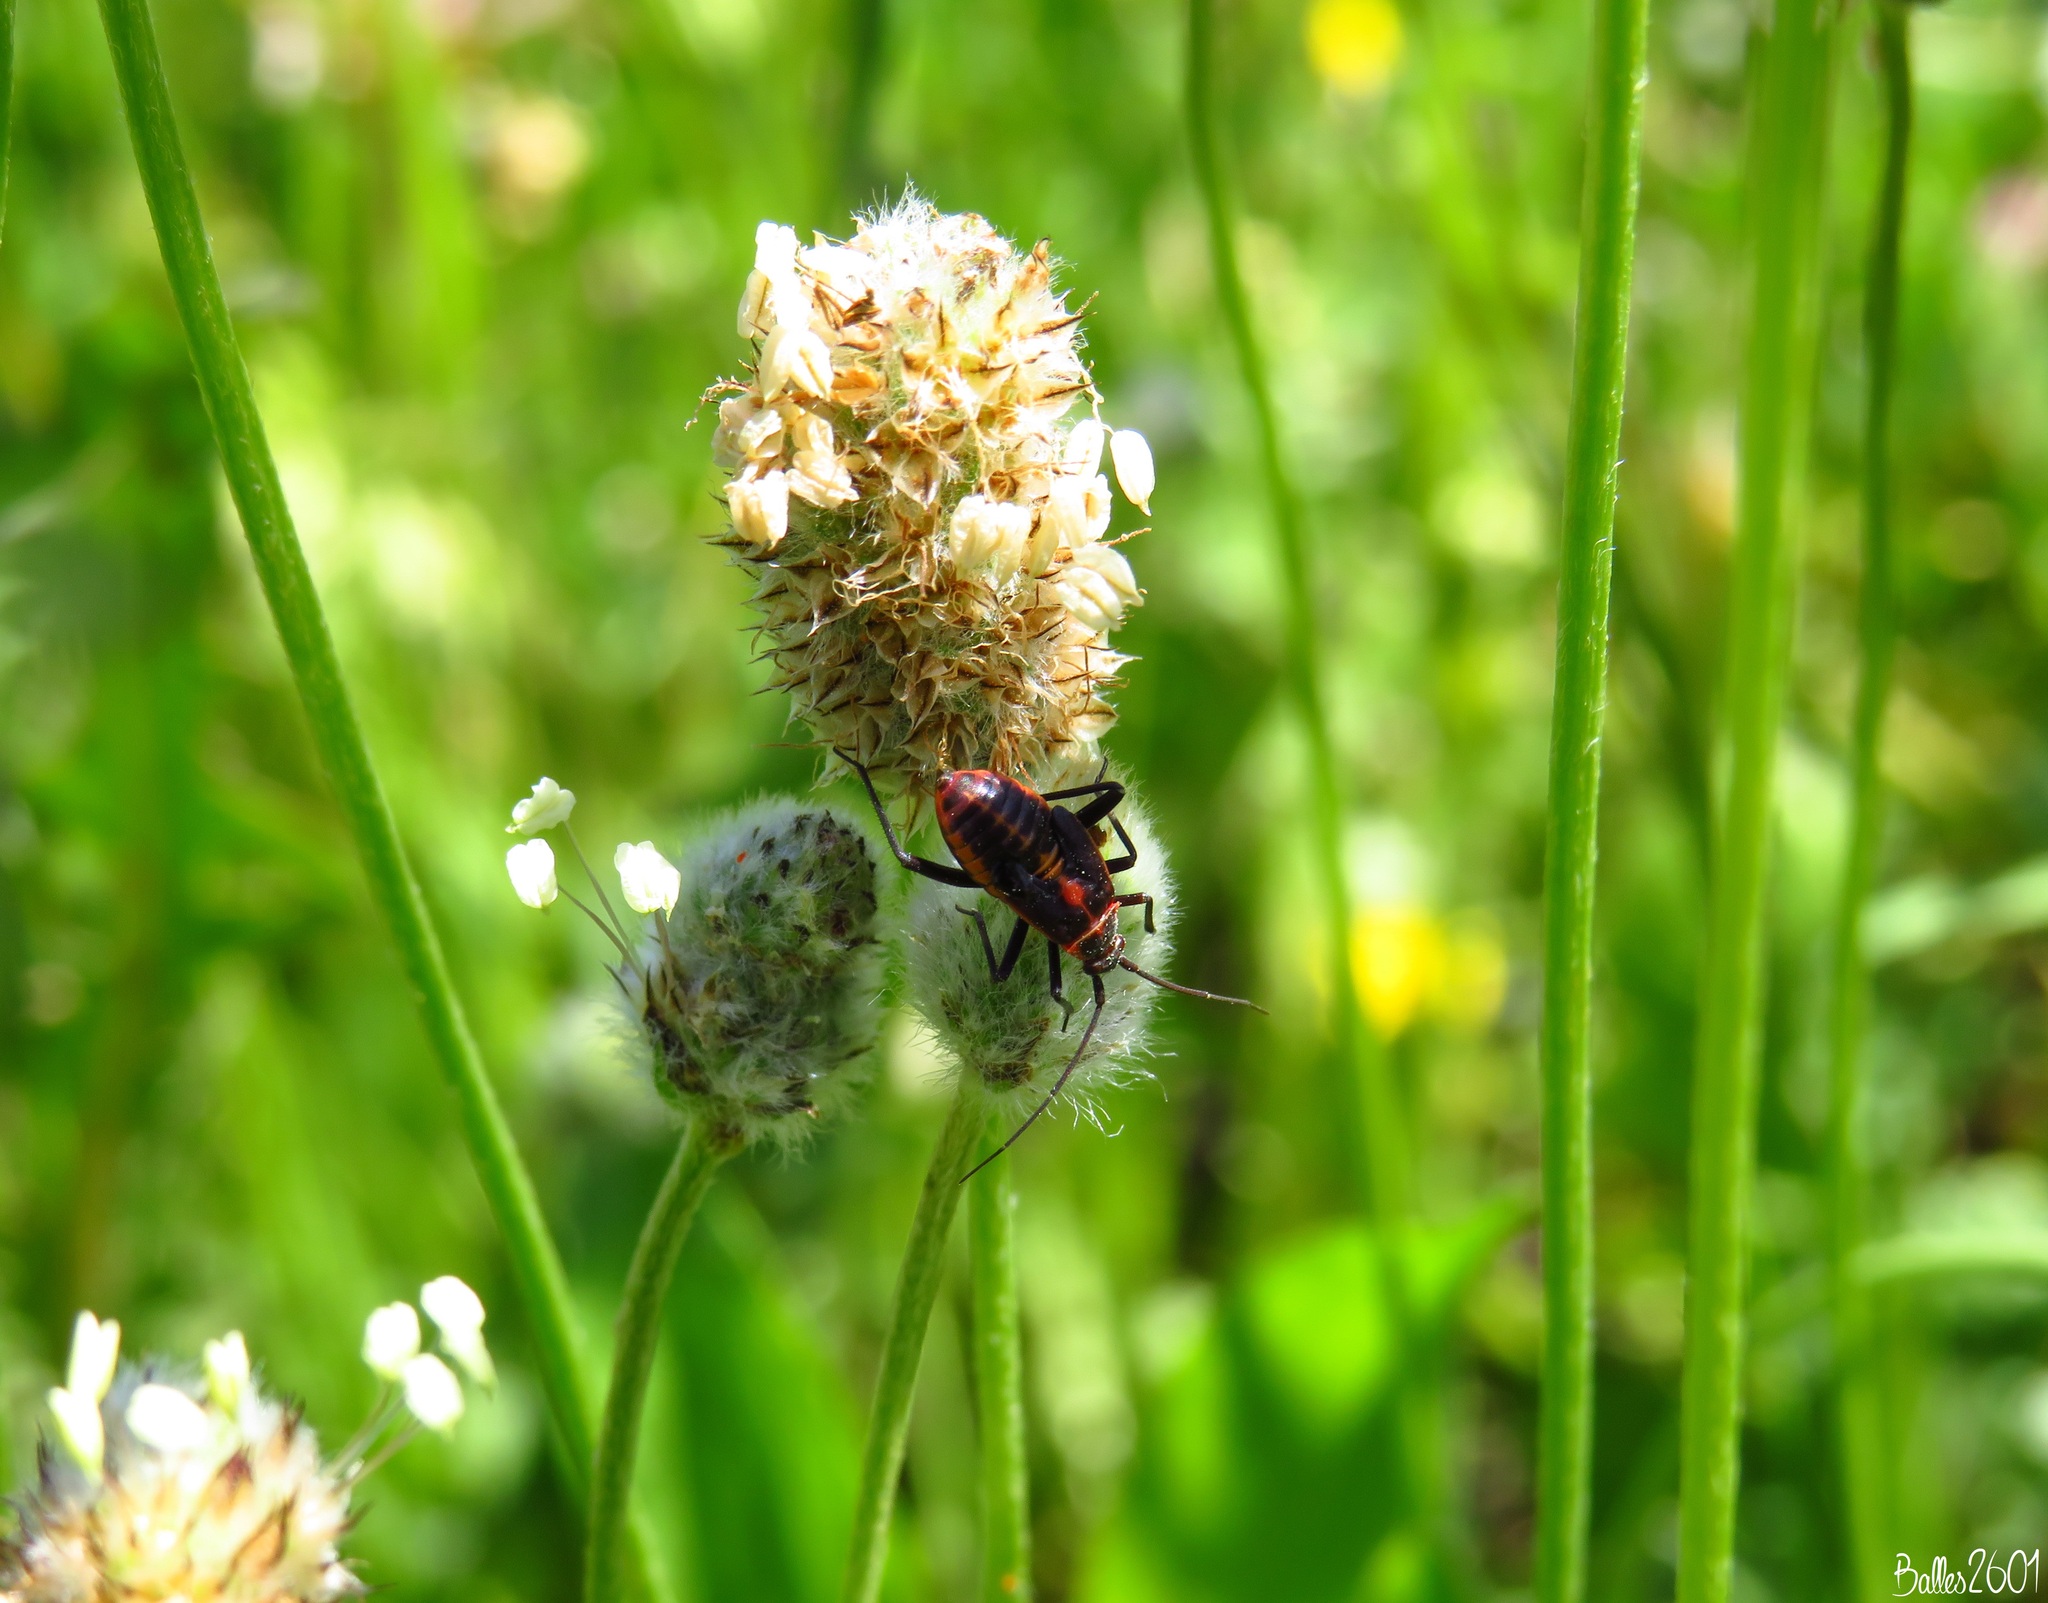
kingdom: Animalia
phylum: Arthropoda
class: Insecta
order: Hemiptera
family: Miridae
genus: Calocoris
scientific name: Calocoris nemoralis
